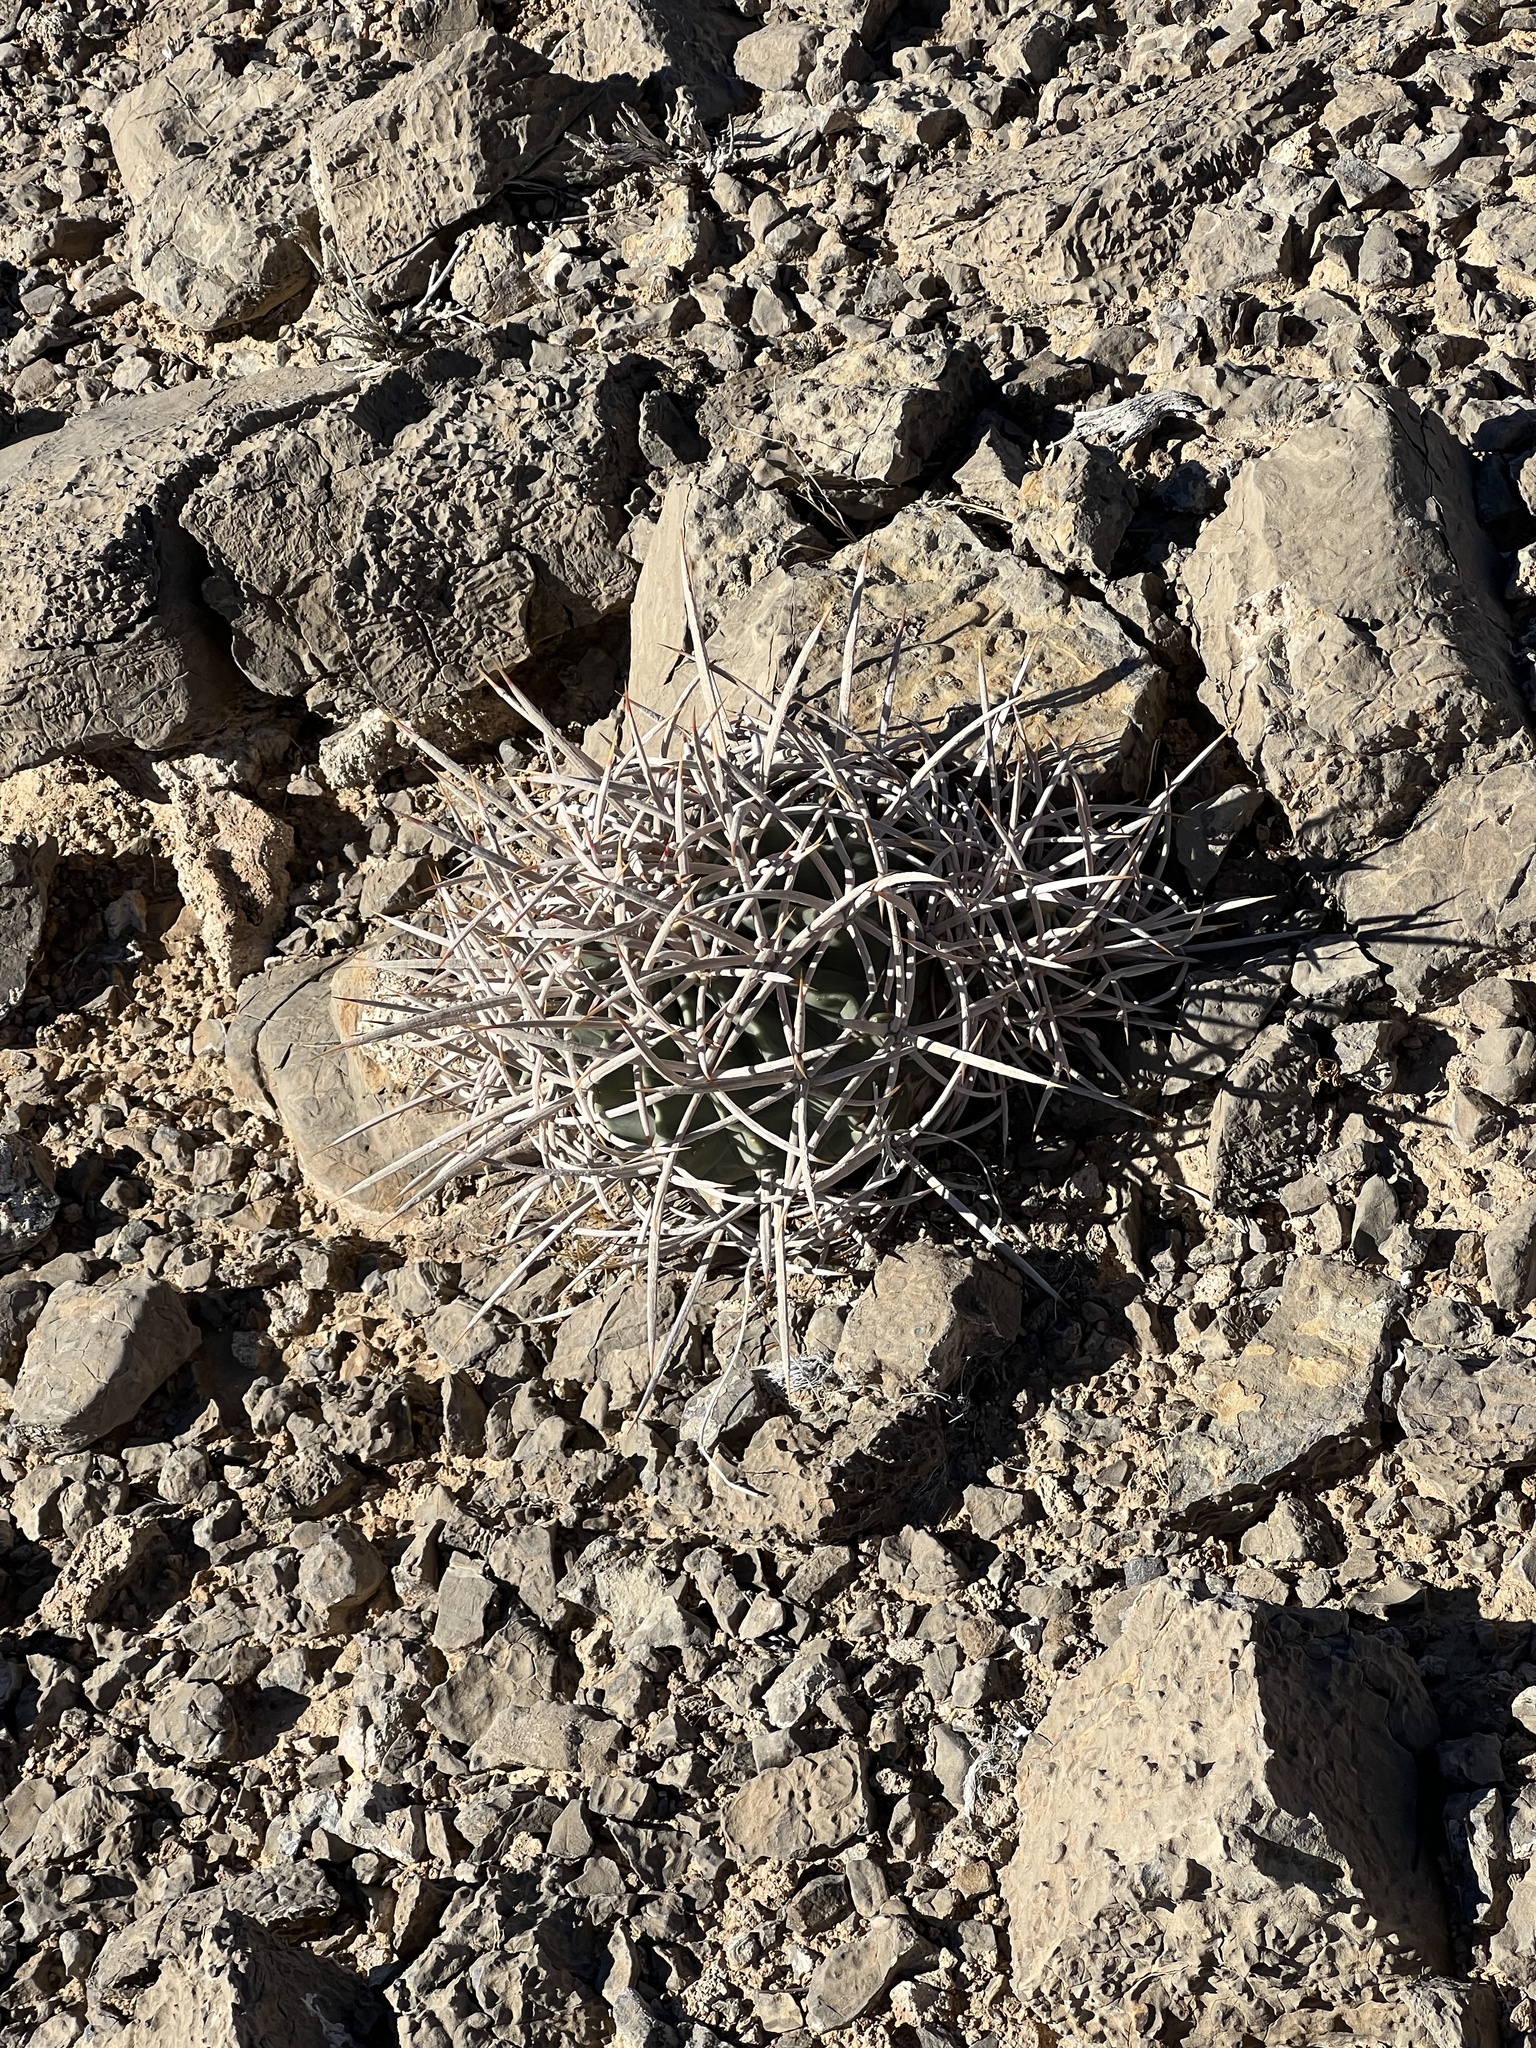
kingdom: Plantae
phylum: Tracheophyta
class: Magnoliopsida
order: Caryophyllales
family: Cactaceae
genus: Echinocactus
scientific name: Echinocactus polycephalus
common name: Cottontop cactus
